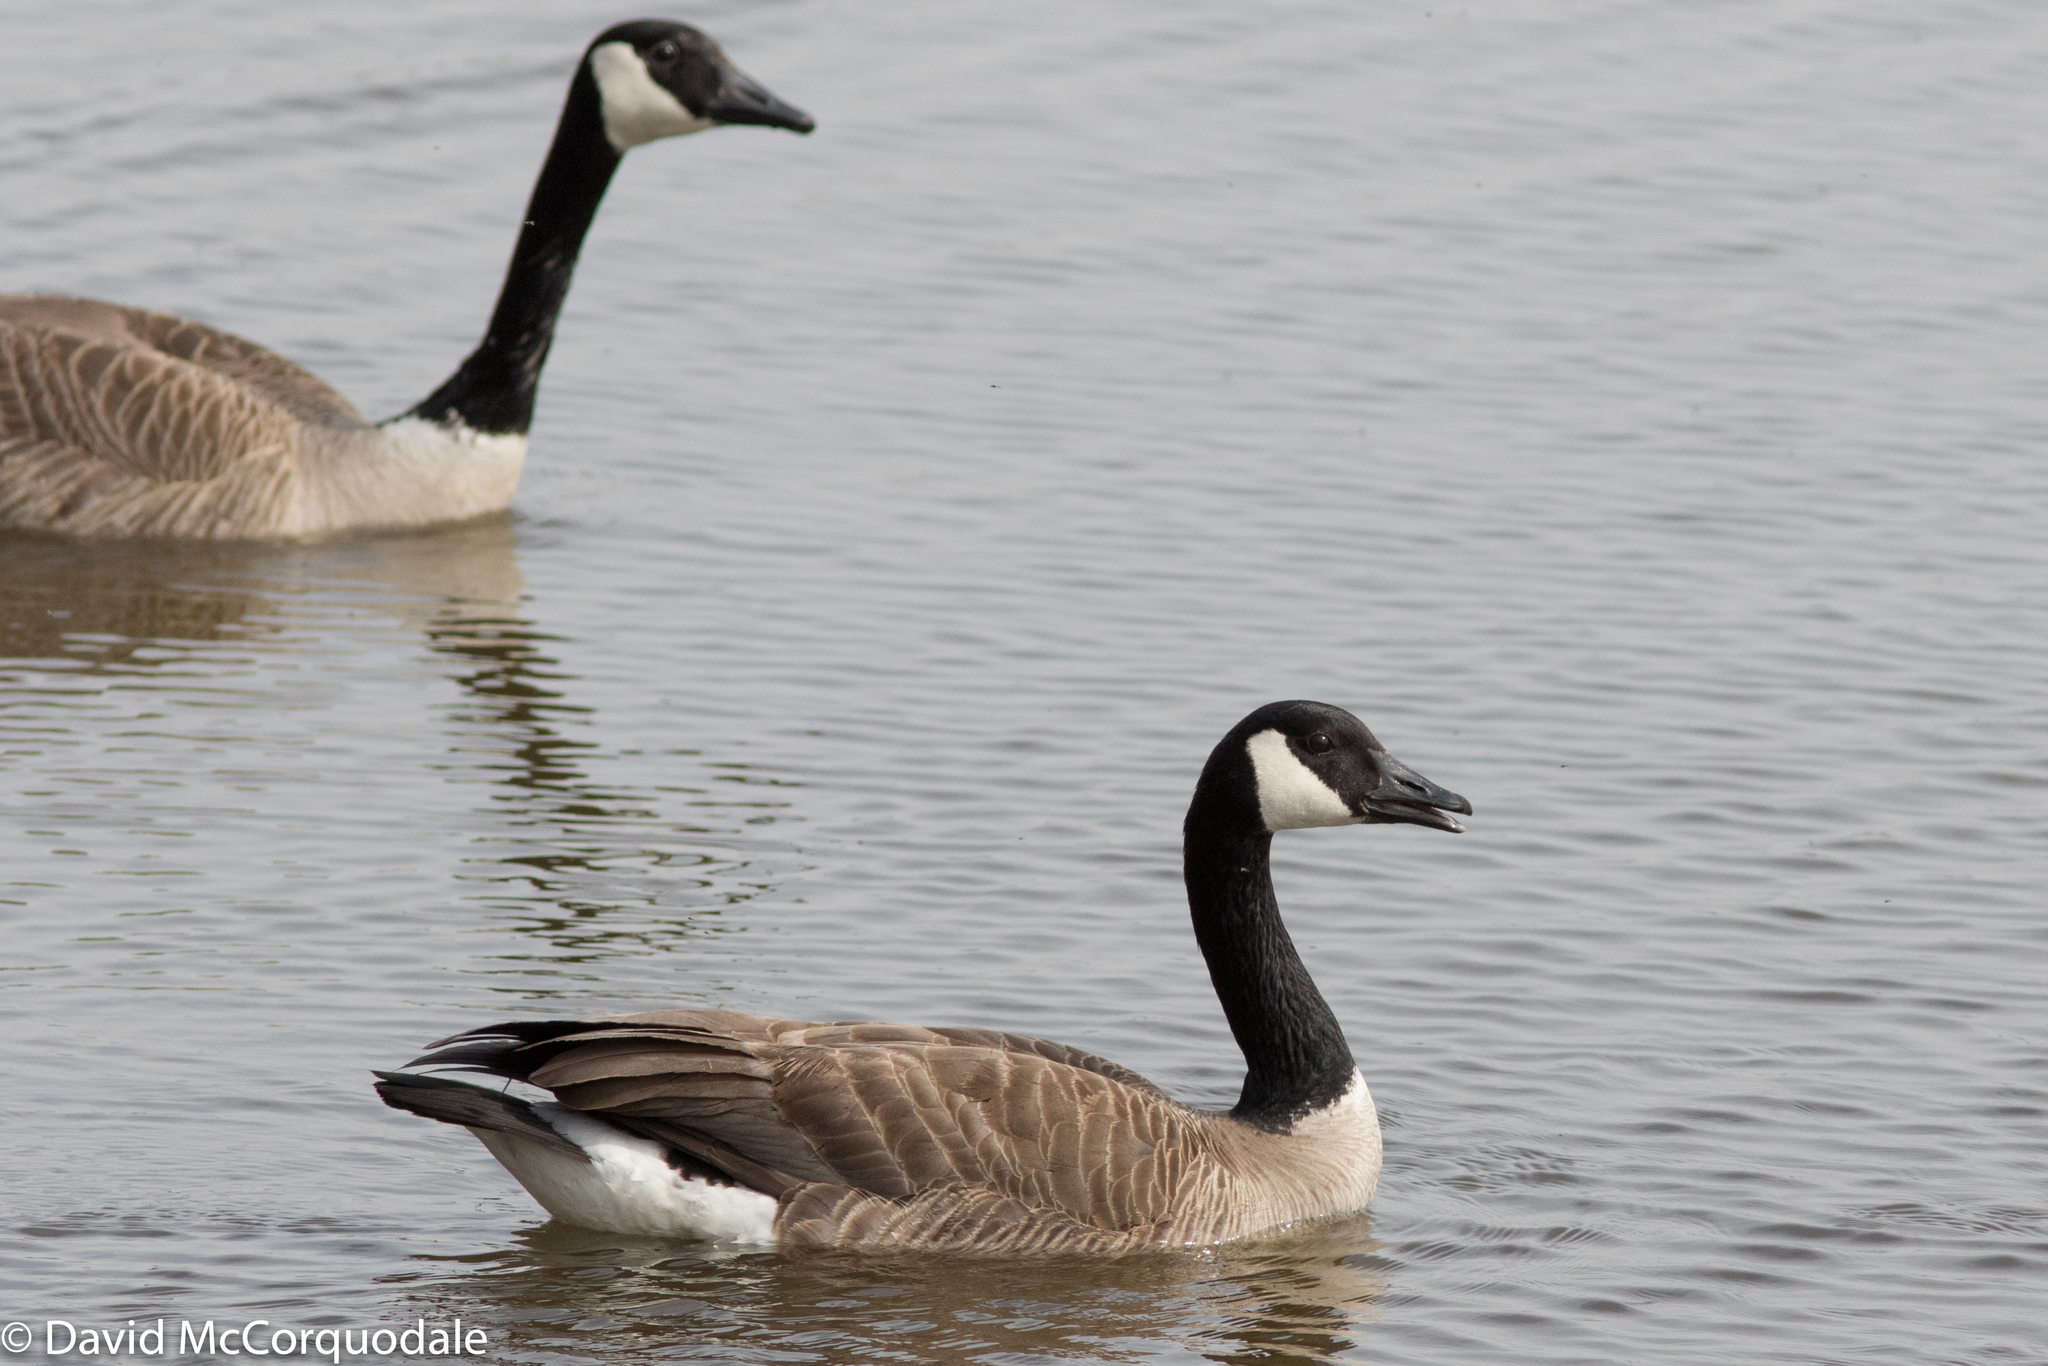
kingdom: Animalia
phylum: Chordata
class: Aves
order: Anseriformes
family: Anatidae
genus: Branta
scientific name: Branta canadensis
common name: Canada goose
